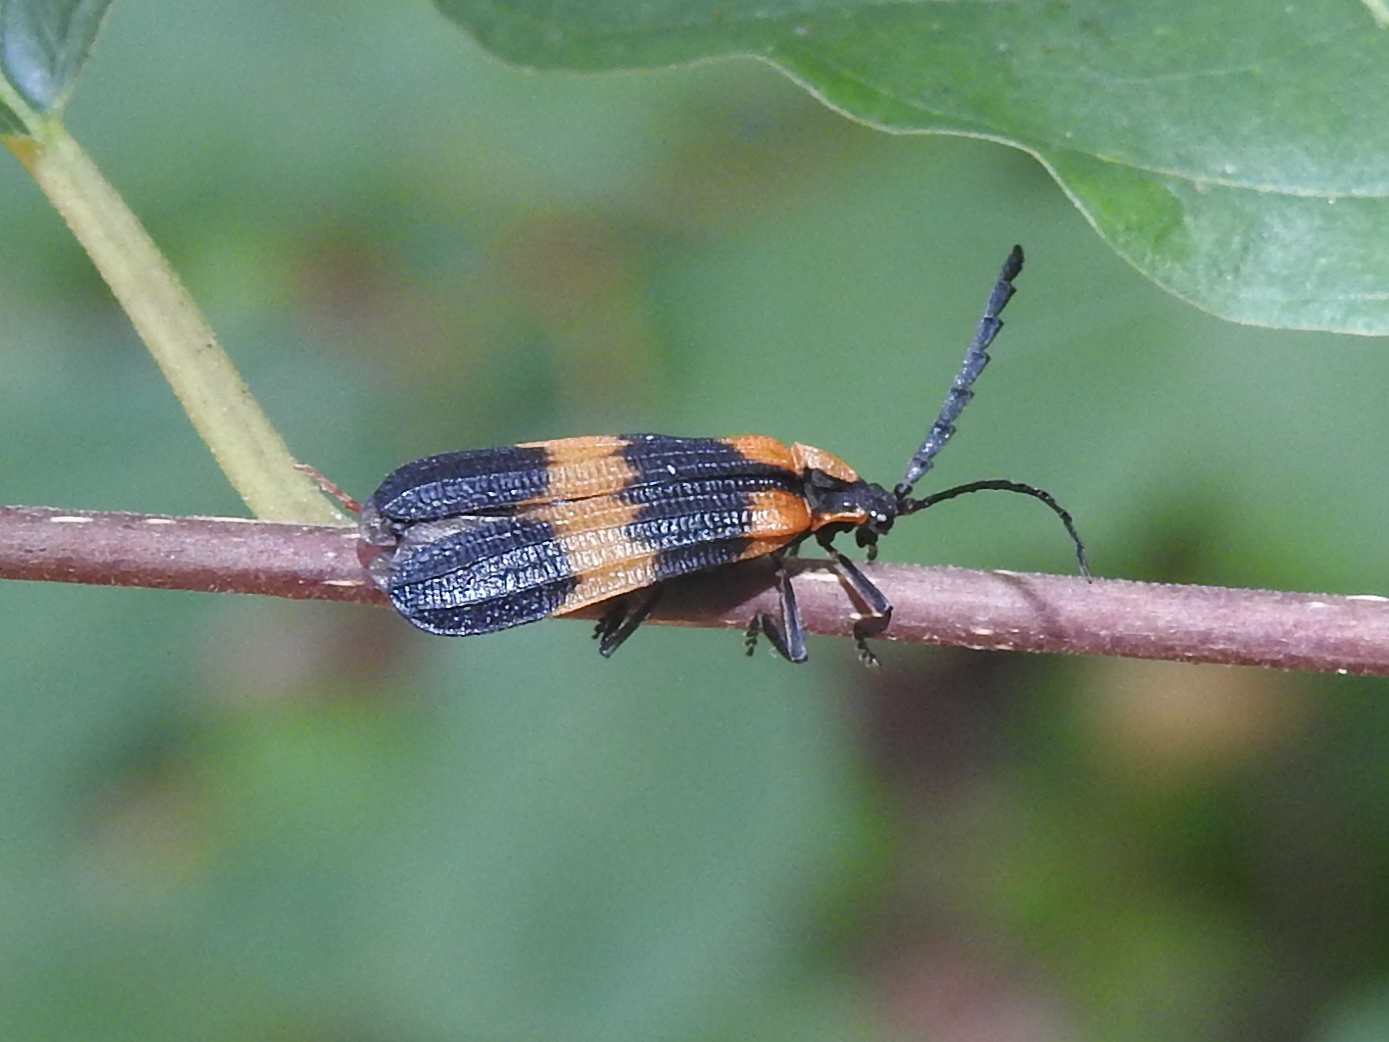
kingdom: Animalia
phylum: Arthropoda
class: Insecta
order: Coleoptera
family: Lycidae
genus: Calopteron
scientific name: Calopteron reticulatum
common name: Banded net-winged beetle
